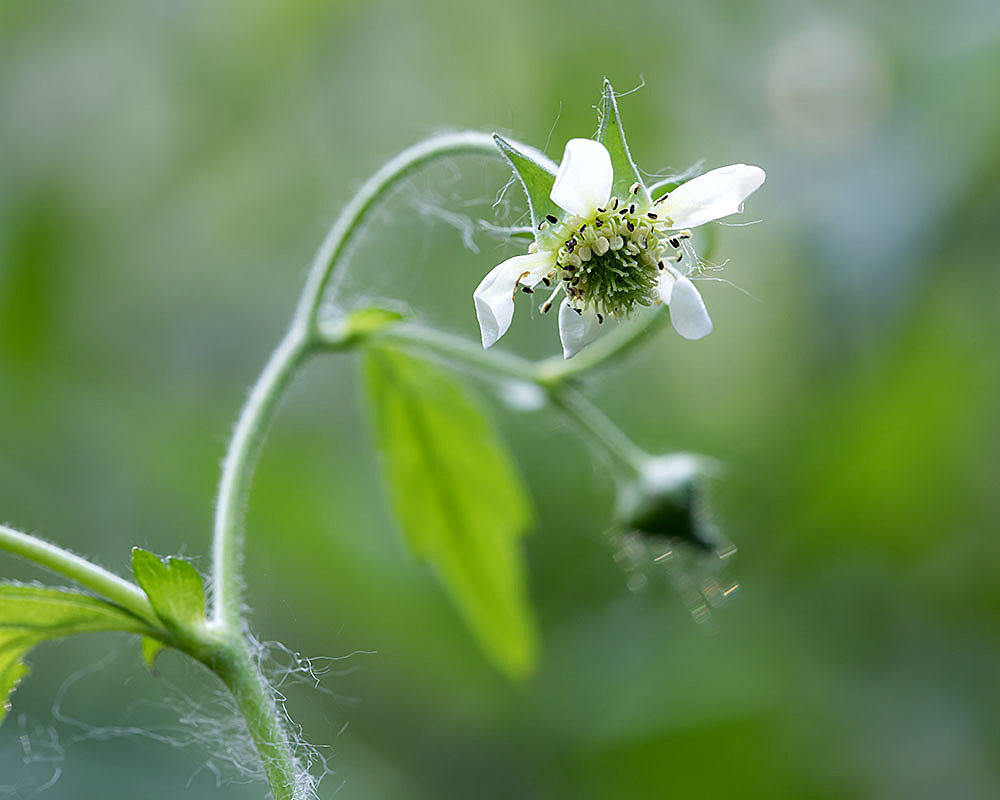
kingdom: Plantae
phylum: Tracheophyta
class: Magnoliopsida
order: Rosales
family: Rosaceae
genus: Geum
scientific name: Geum canadense
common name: White avens
